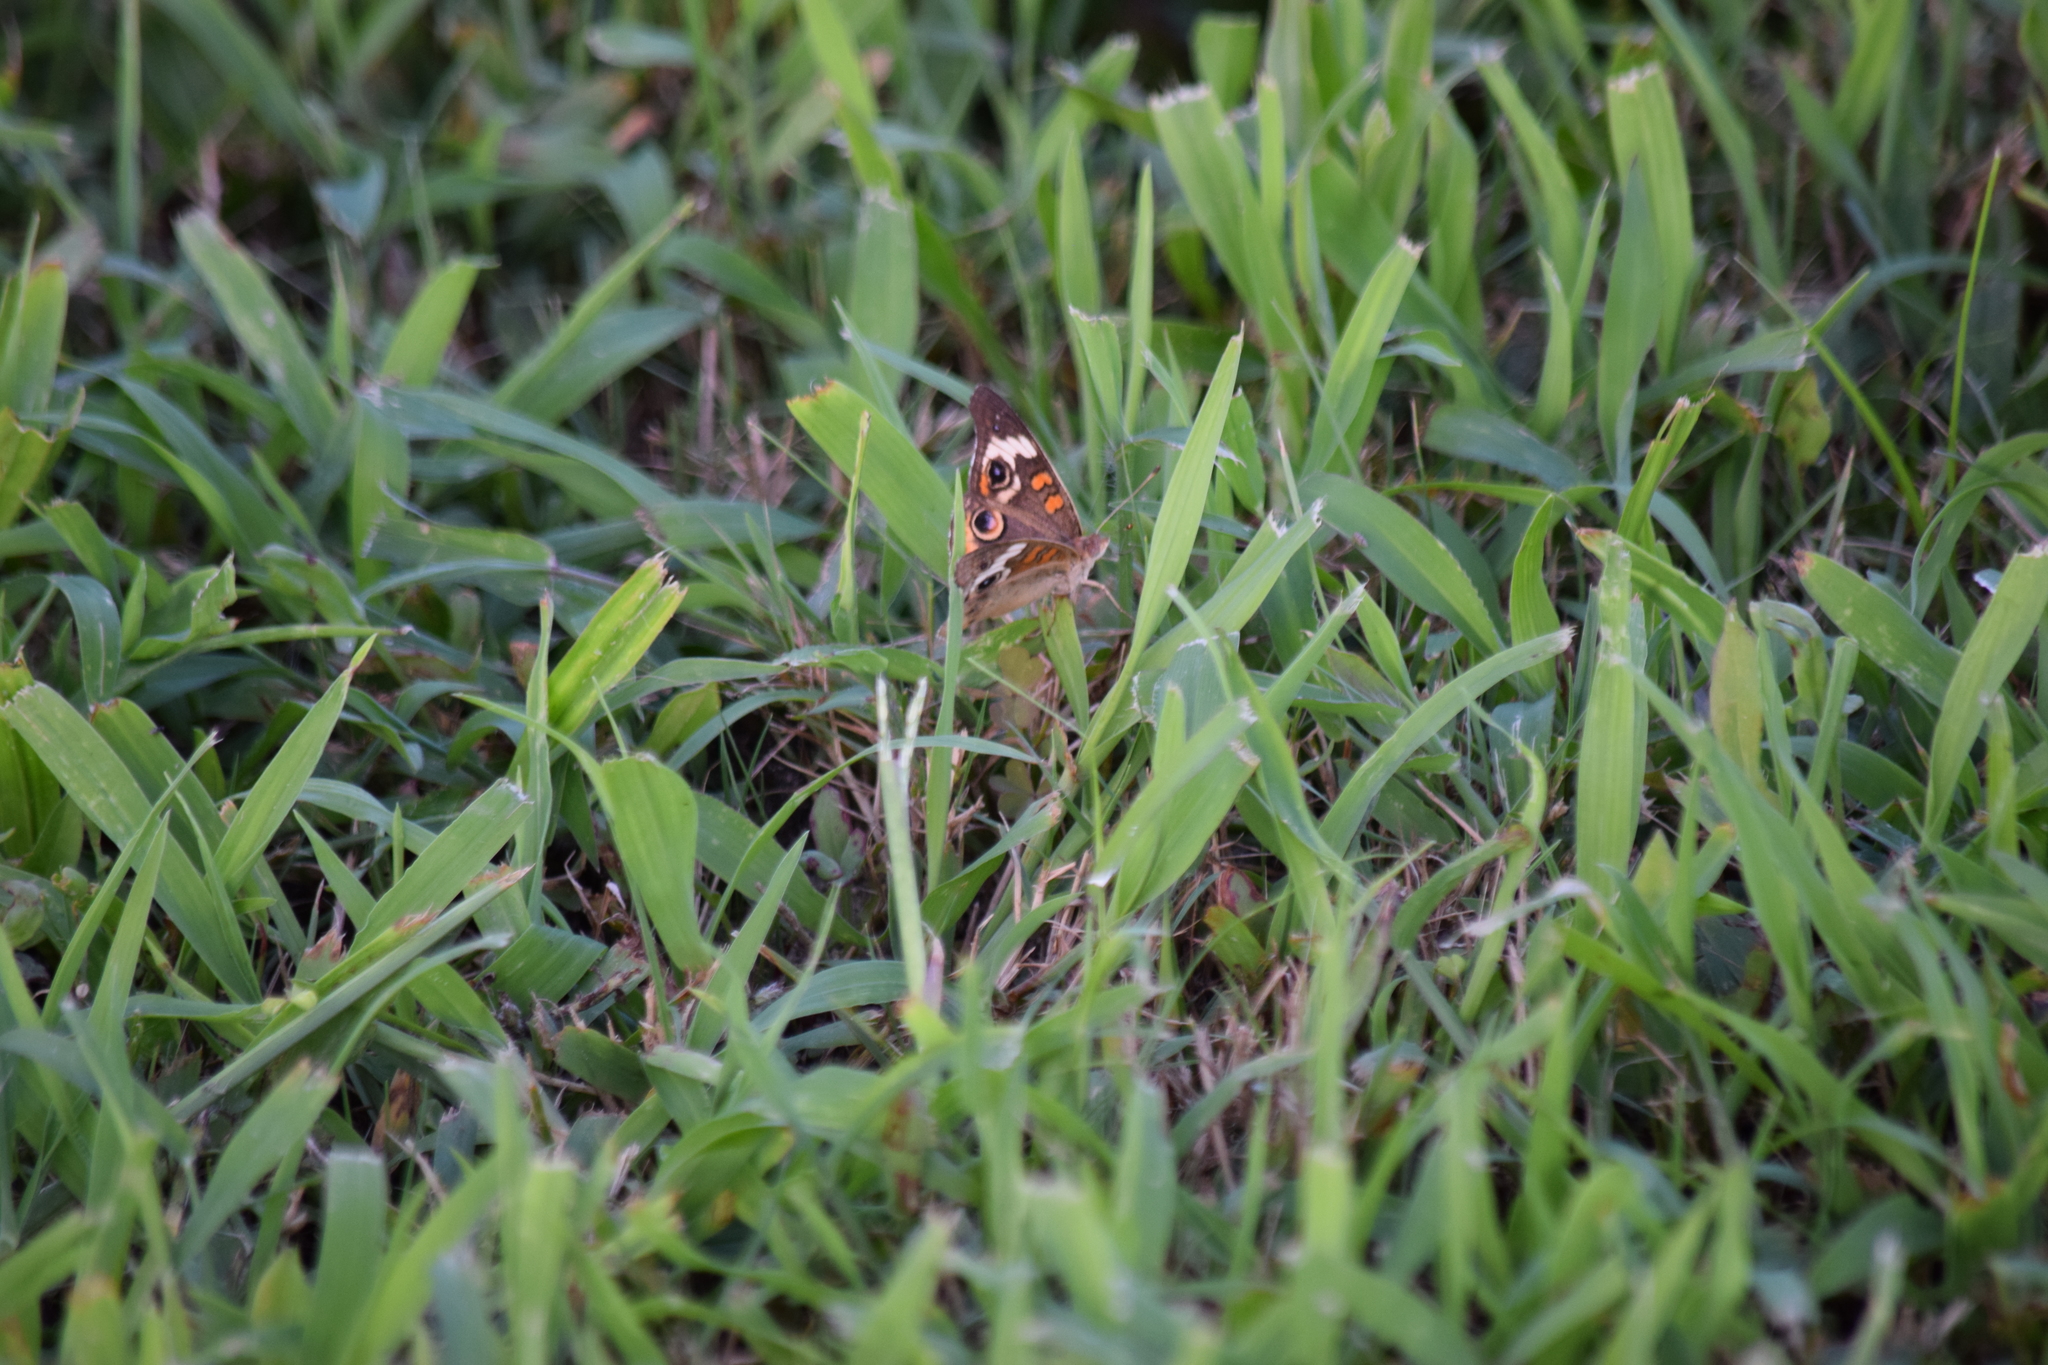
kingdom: Animalia
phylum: Arthropoda
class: Insecta
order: Lepidoptera
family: Nymphalidae
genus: Junonia
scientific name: Junonia coenia
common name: Common buckeye
